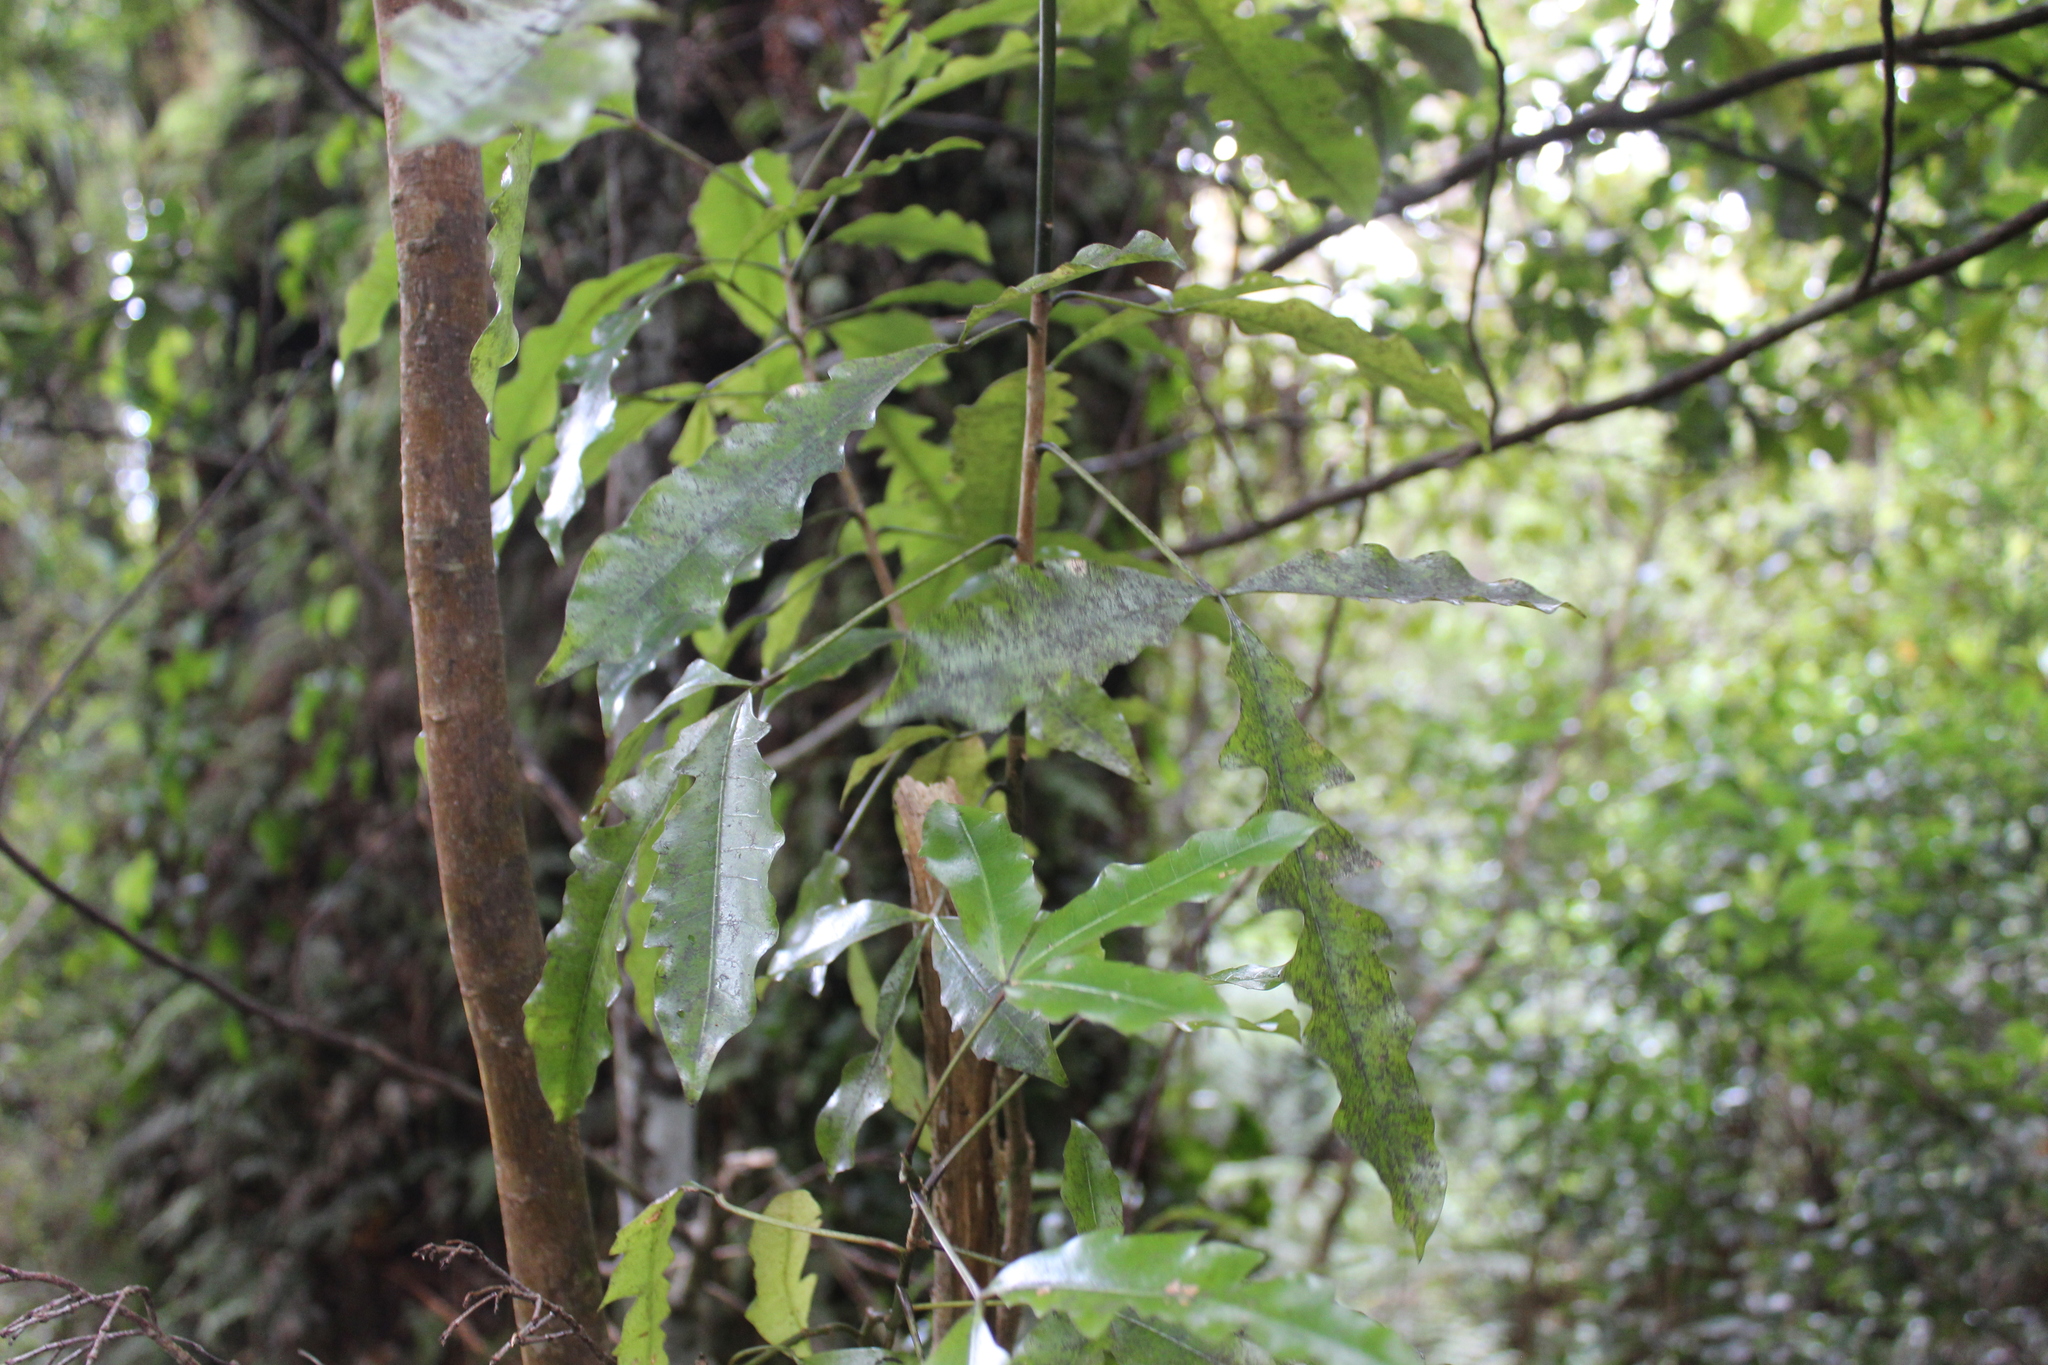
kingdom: Plantae
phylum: Tracheophyta
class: Magnoliopsida
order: Apiales
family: Araliaceae
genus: Raukaua
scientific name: Raukaua edgerleyi
